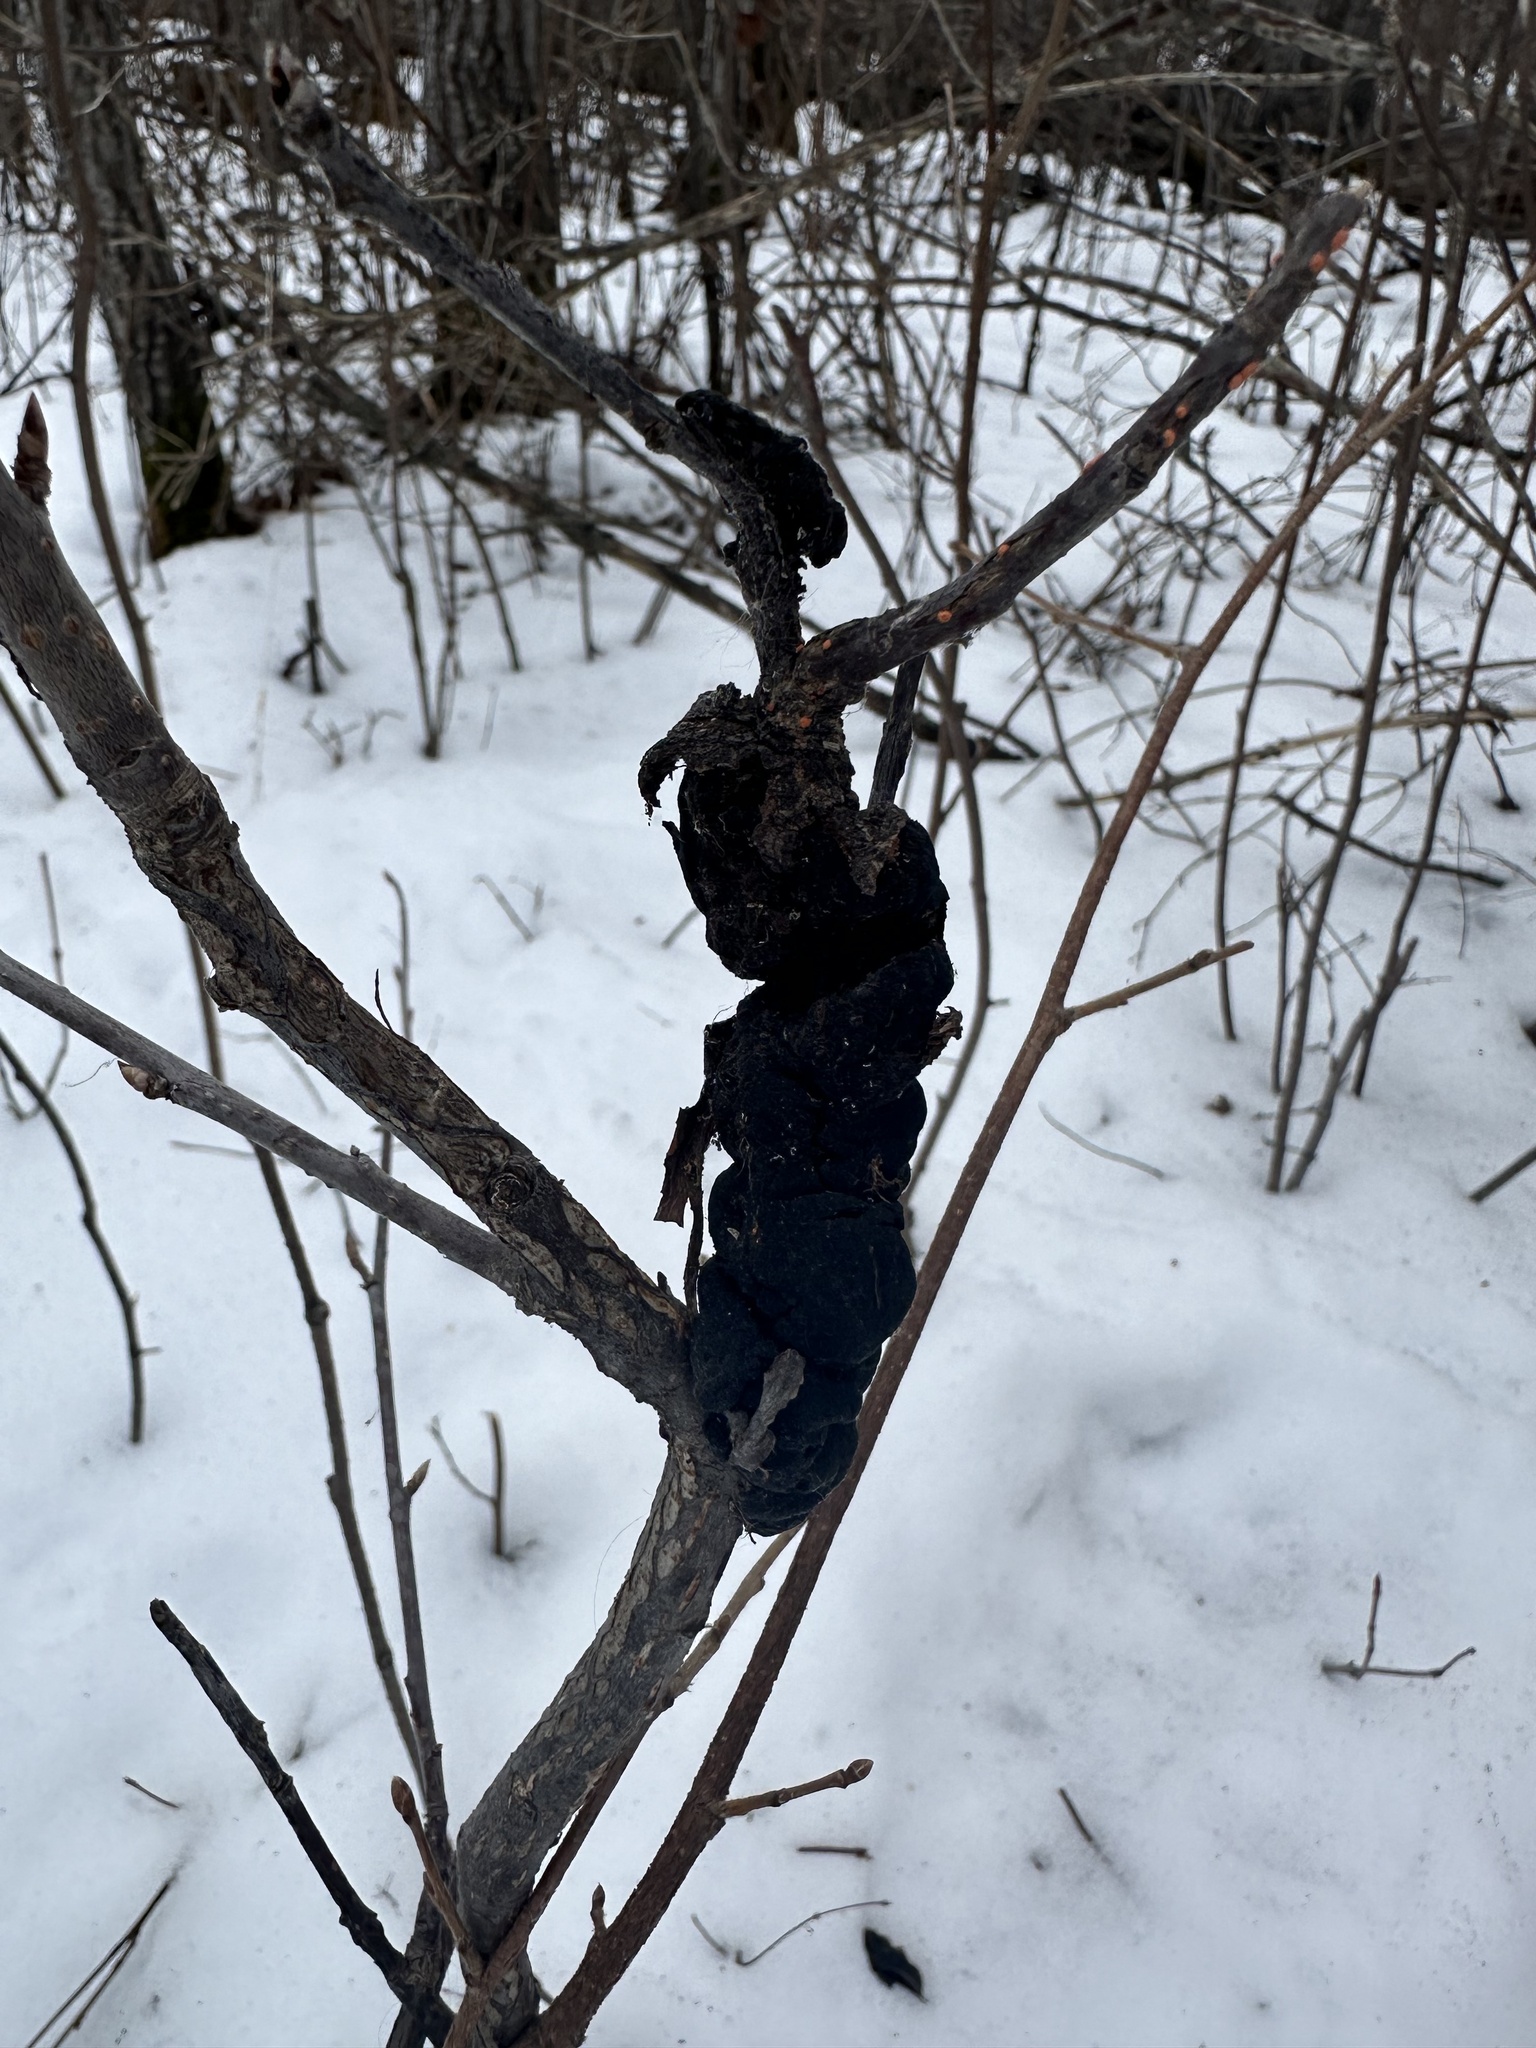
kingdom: Fungi
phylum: Ascomycota
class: Dothideomycetes
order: Venturiales
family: Venturiaceae
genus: Apiosporina
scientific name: Apiosporina morbosa
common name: Black knot
